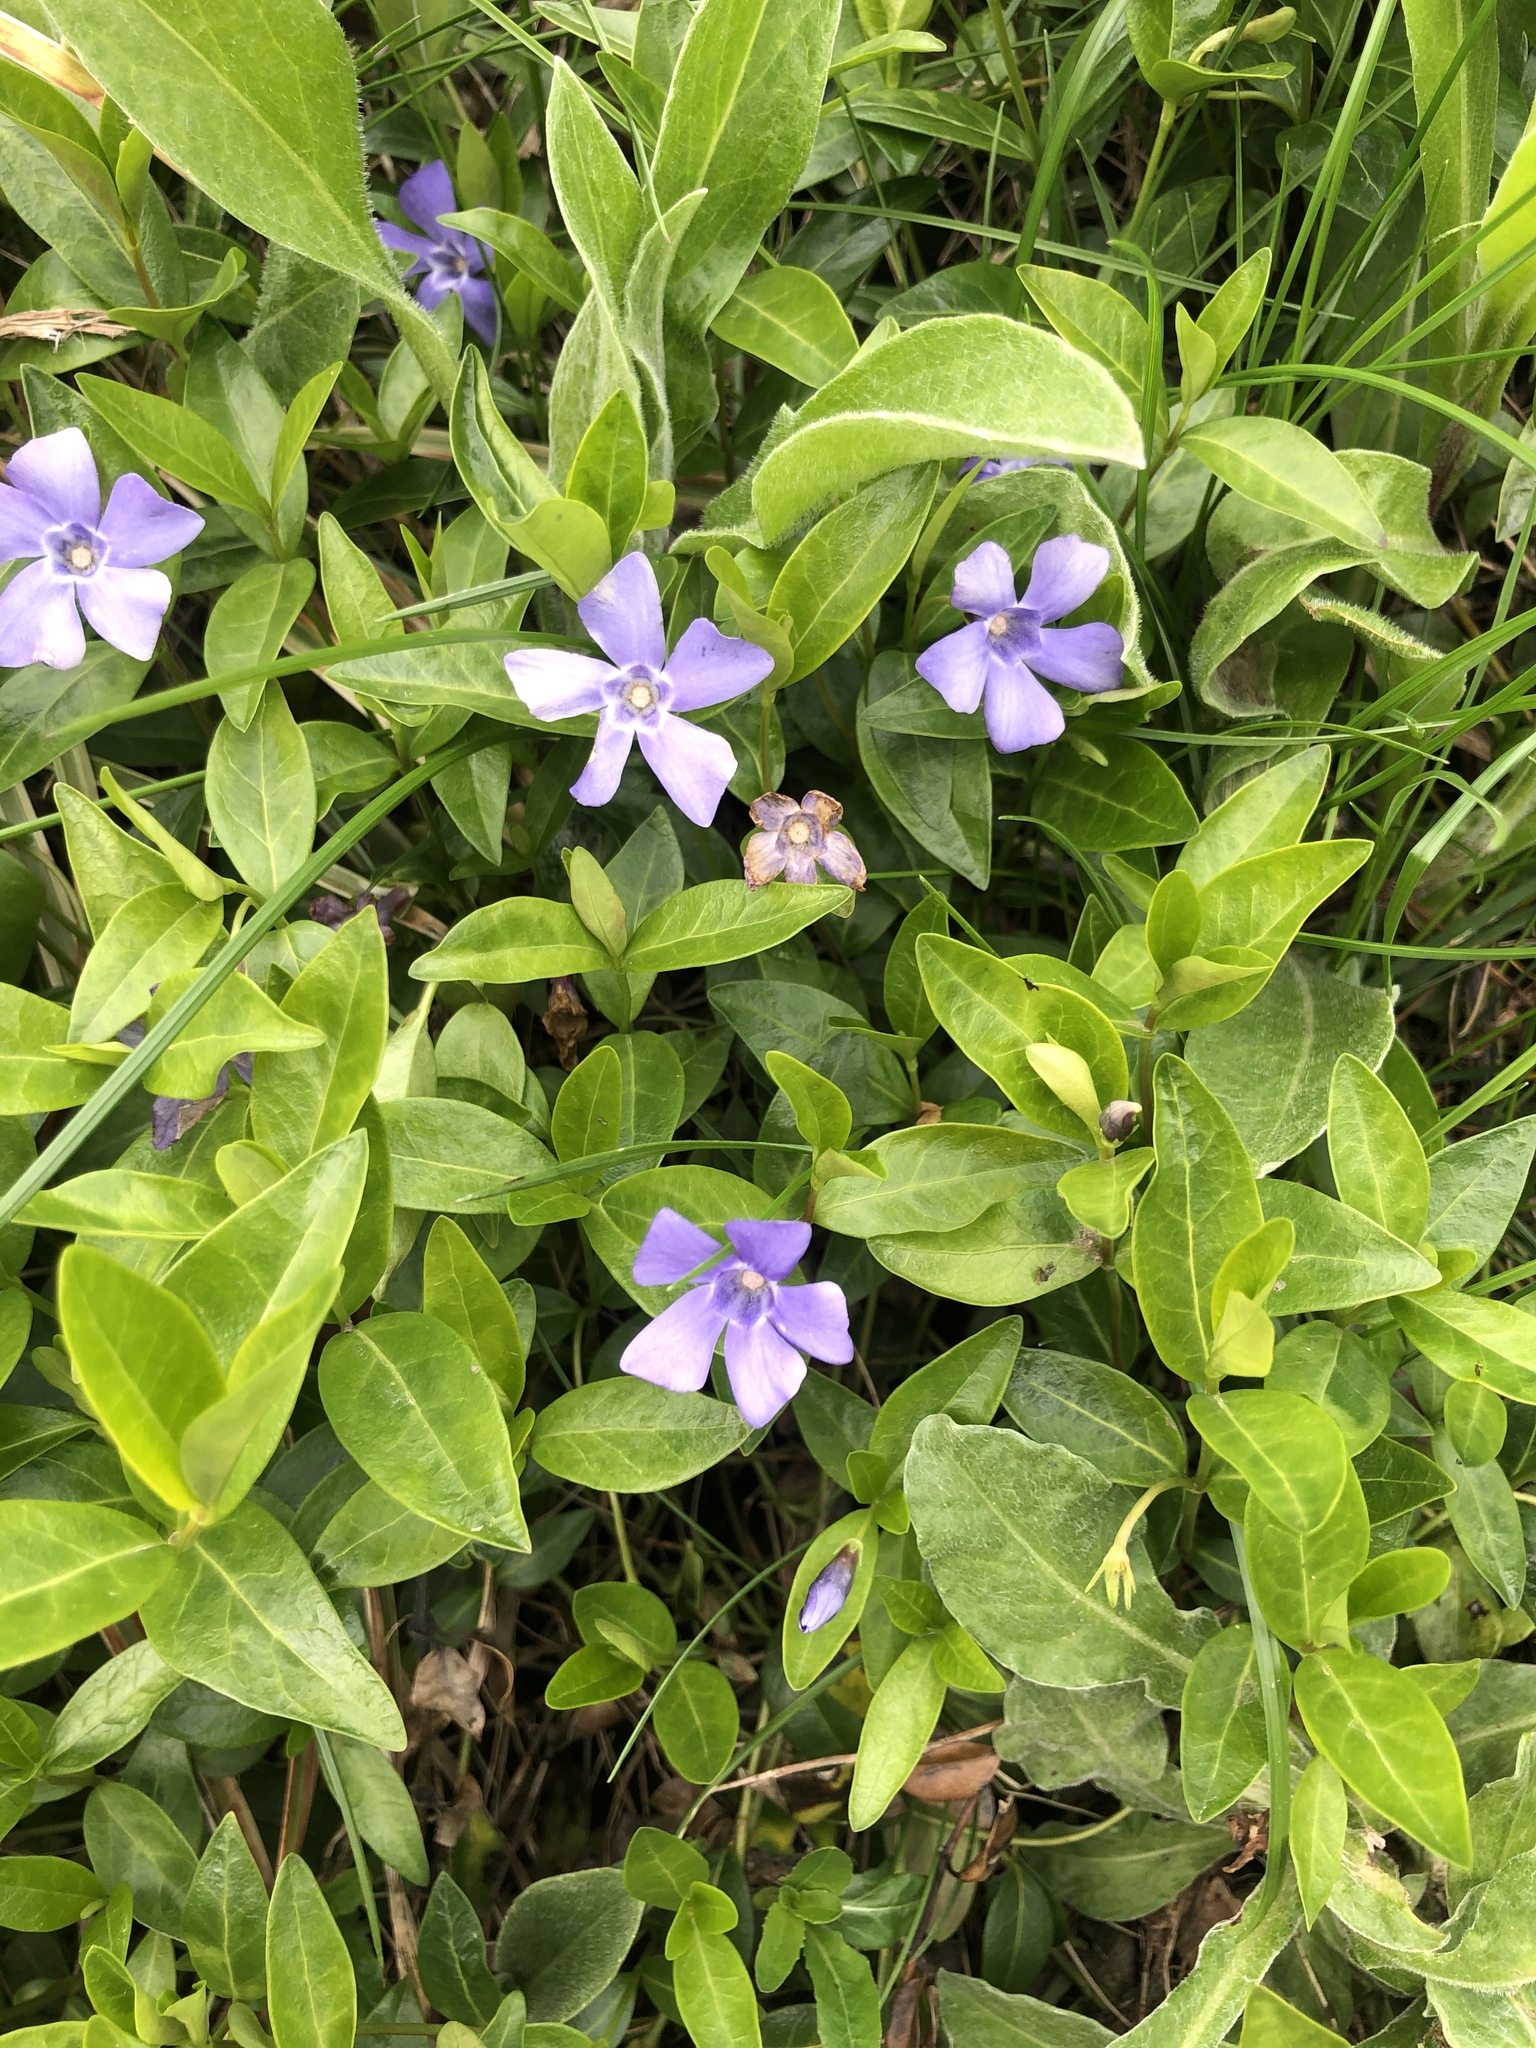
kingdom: Plantae
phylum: Tracheophyta
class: Magnoliopsida
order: Gentianales
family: Apocynaceae
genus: Vinca
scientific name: Vinca minor
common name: Lesser periwinkle
